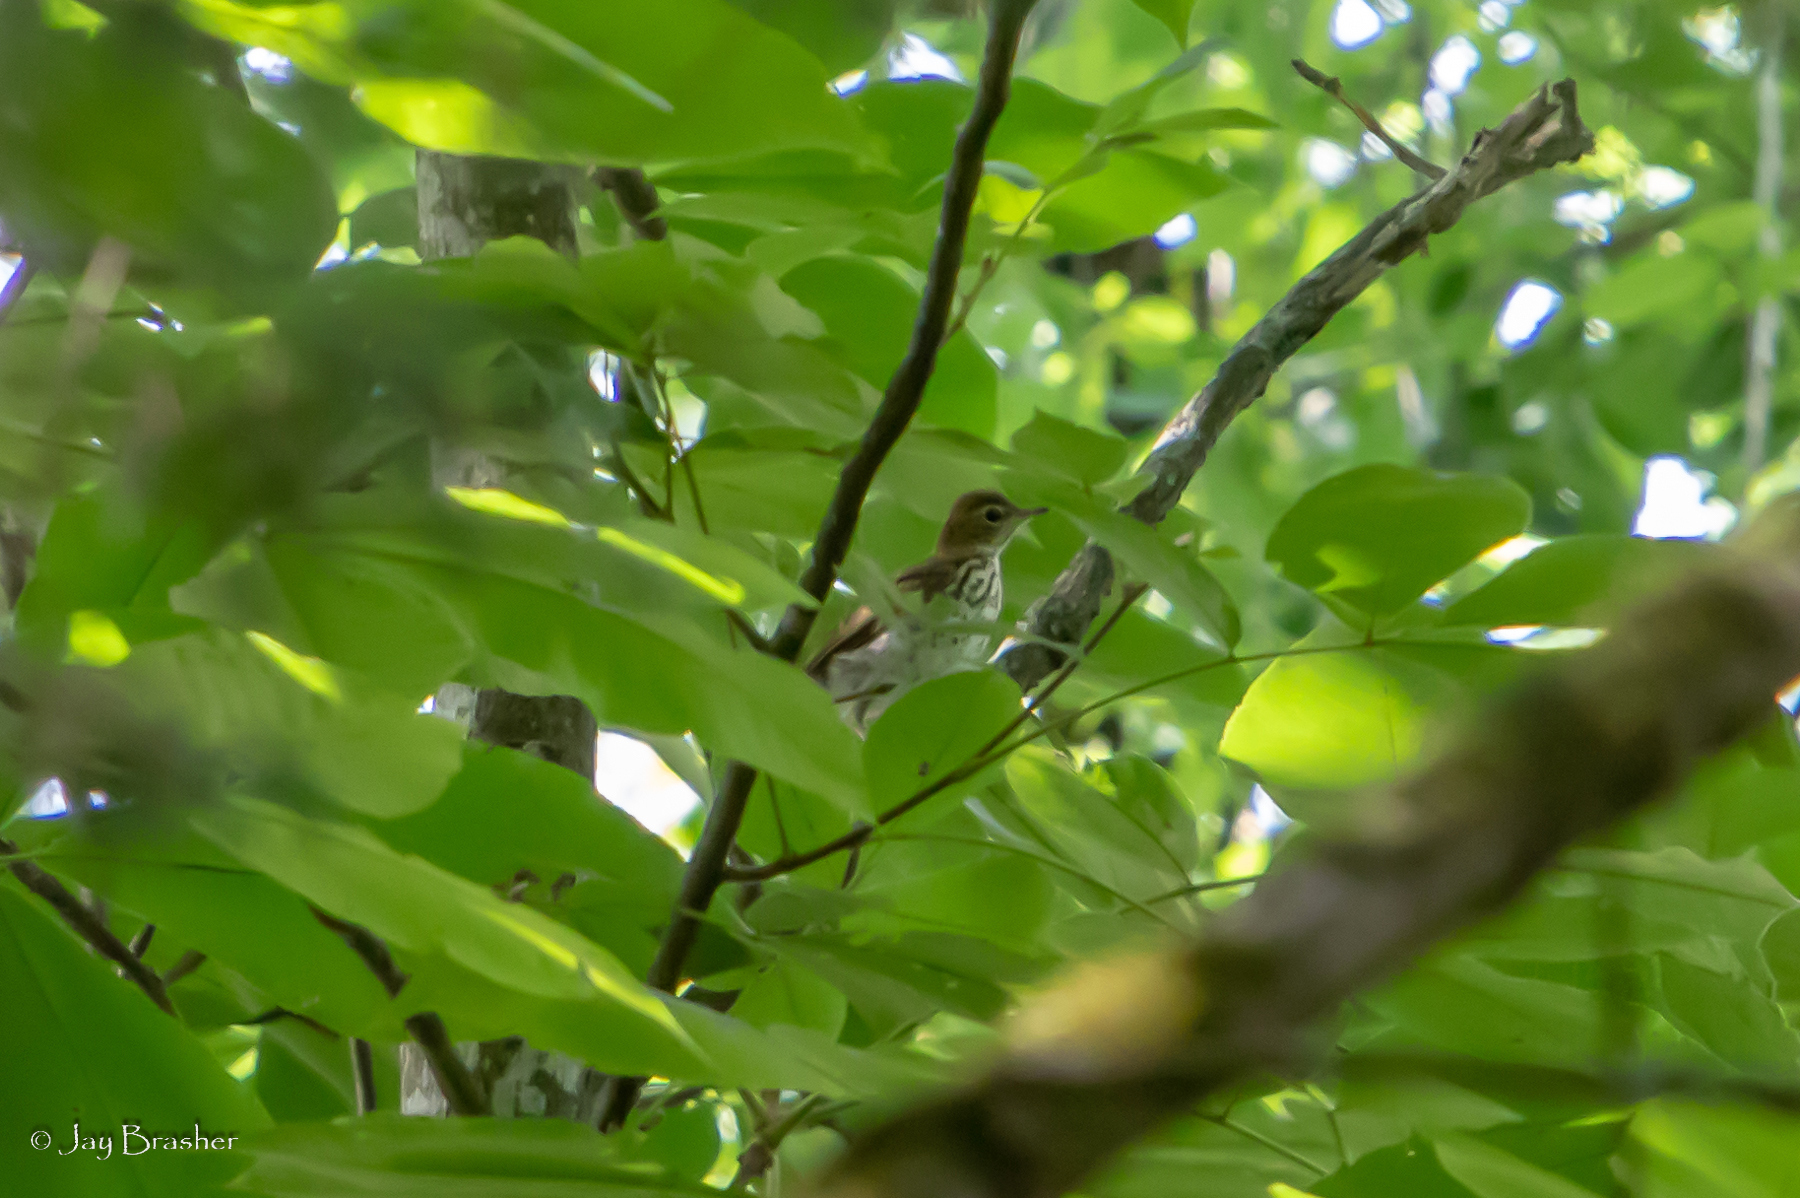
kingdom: Animalia
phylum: Chordata
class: Aves
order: Passeriformes
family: Turdidae
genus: Hylocichla
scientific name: Hylocichla mustelina
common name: Wood thrush
